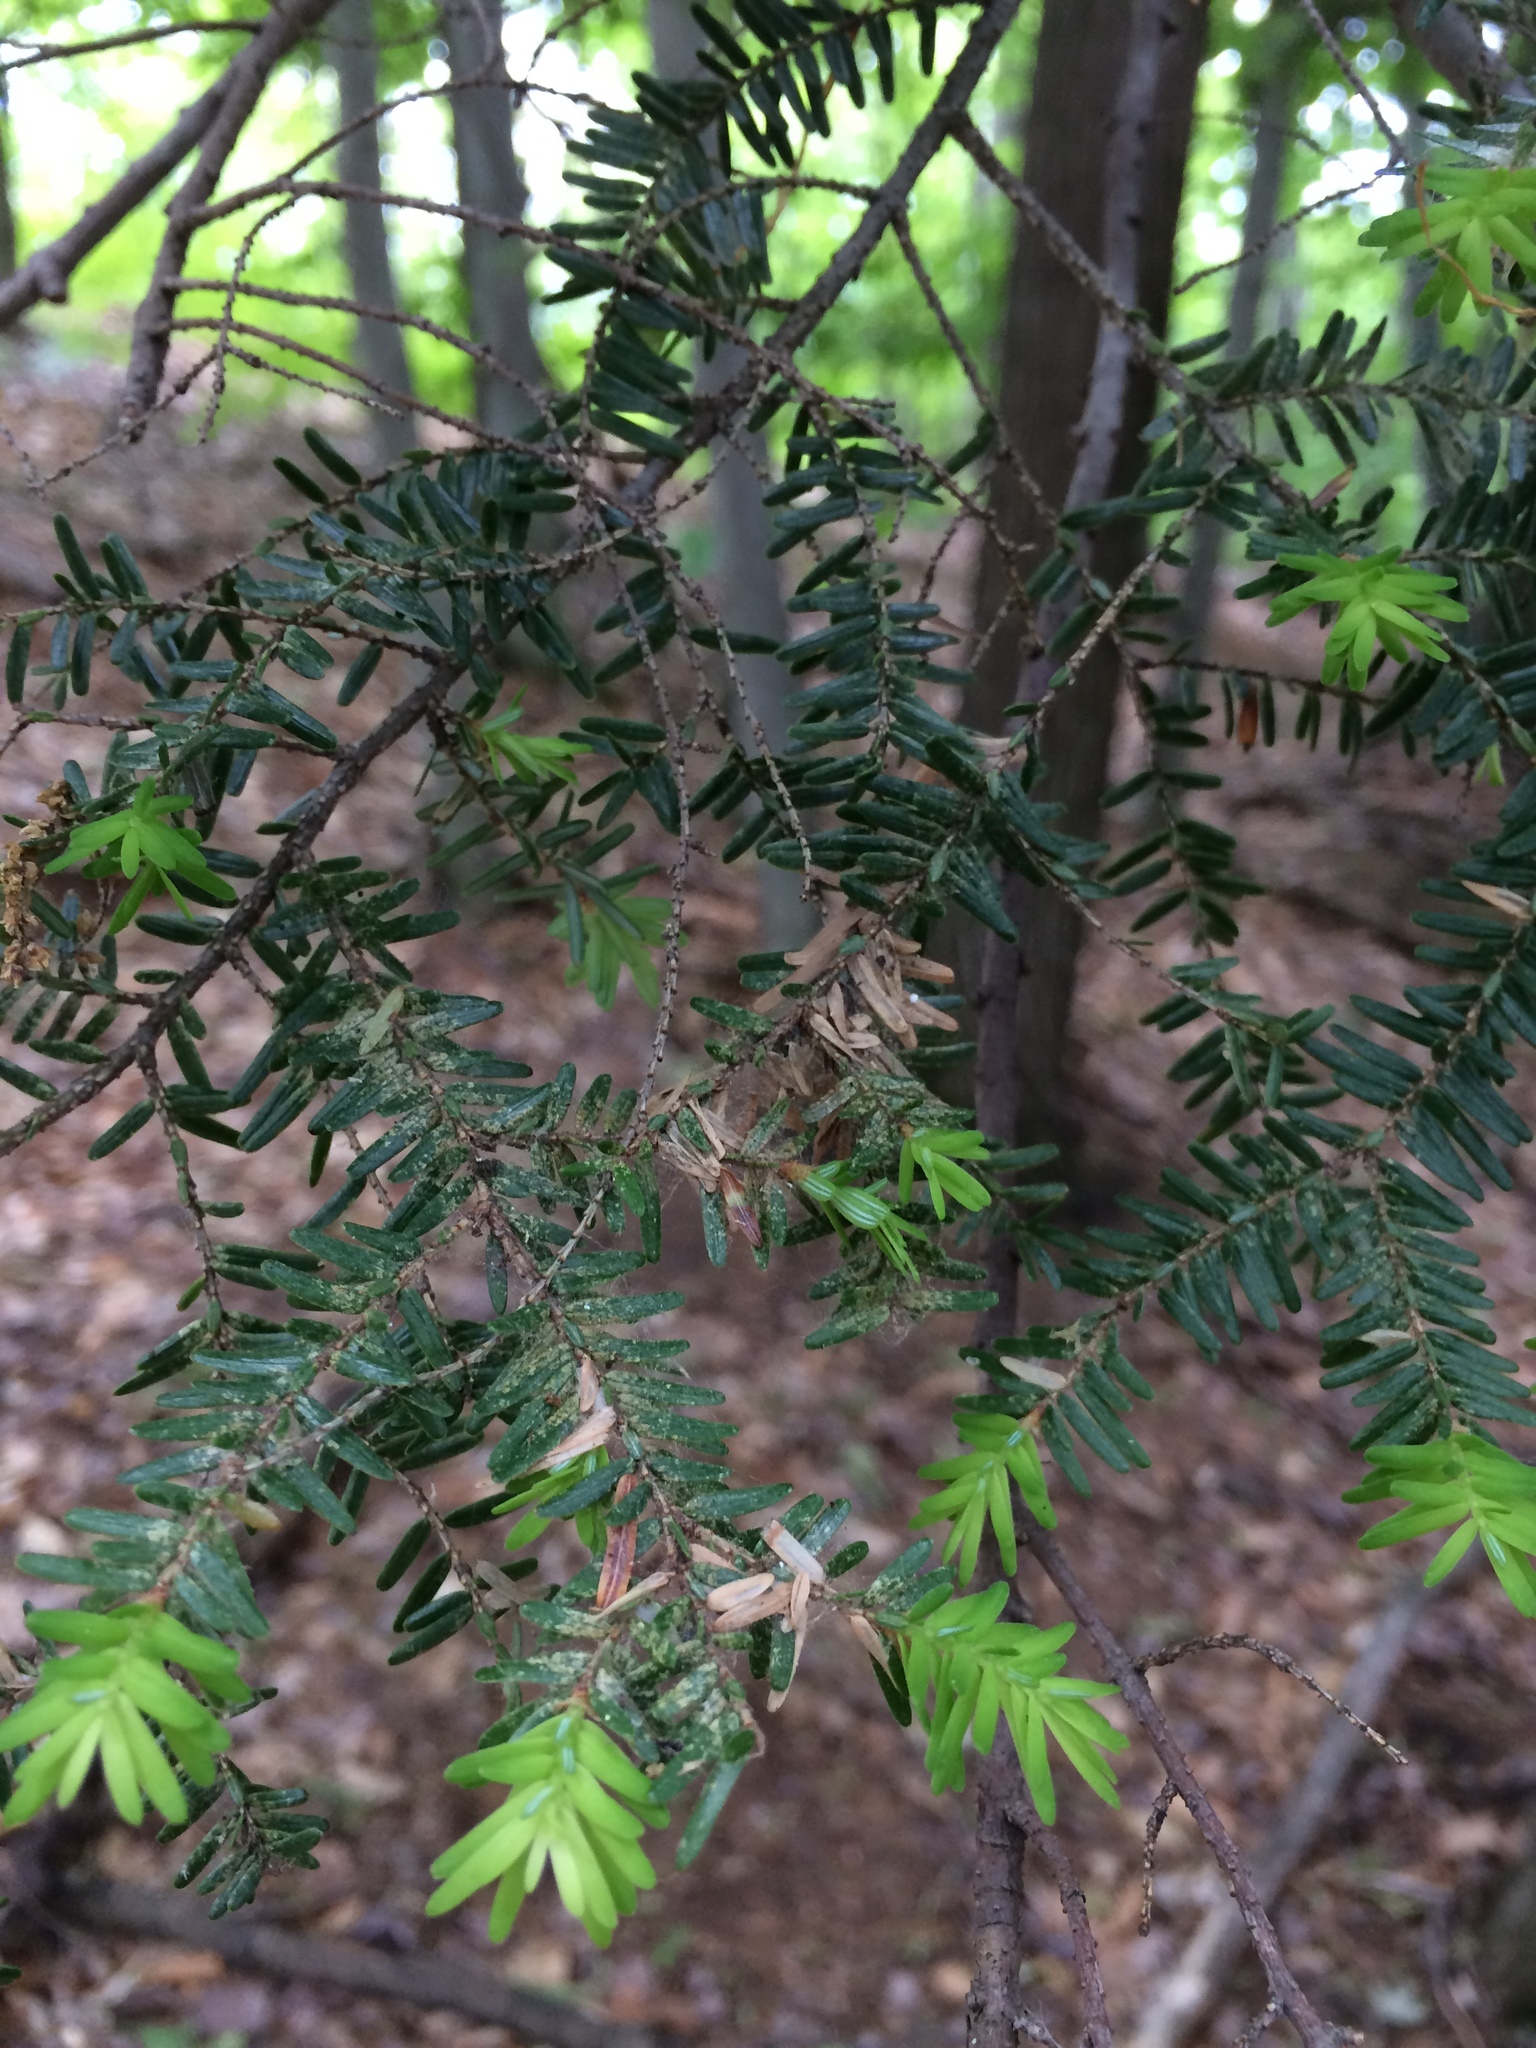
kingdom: Plantae
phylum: Tracheophyta
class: Pinopsida
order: Pinales
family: Pinaceae
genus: Tsuga
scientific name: Tsuga canadensis
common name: Eastern hemlock
